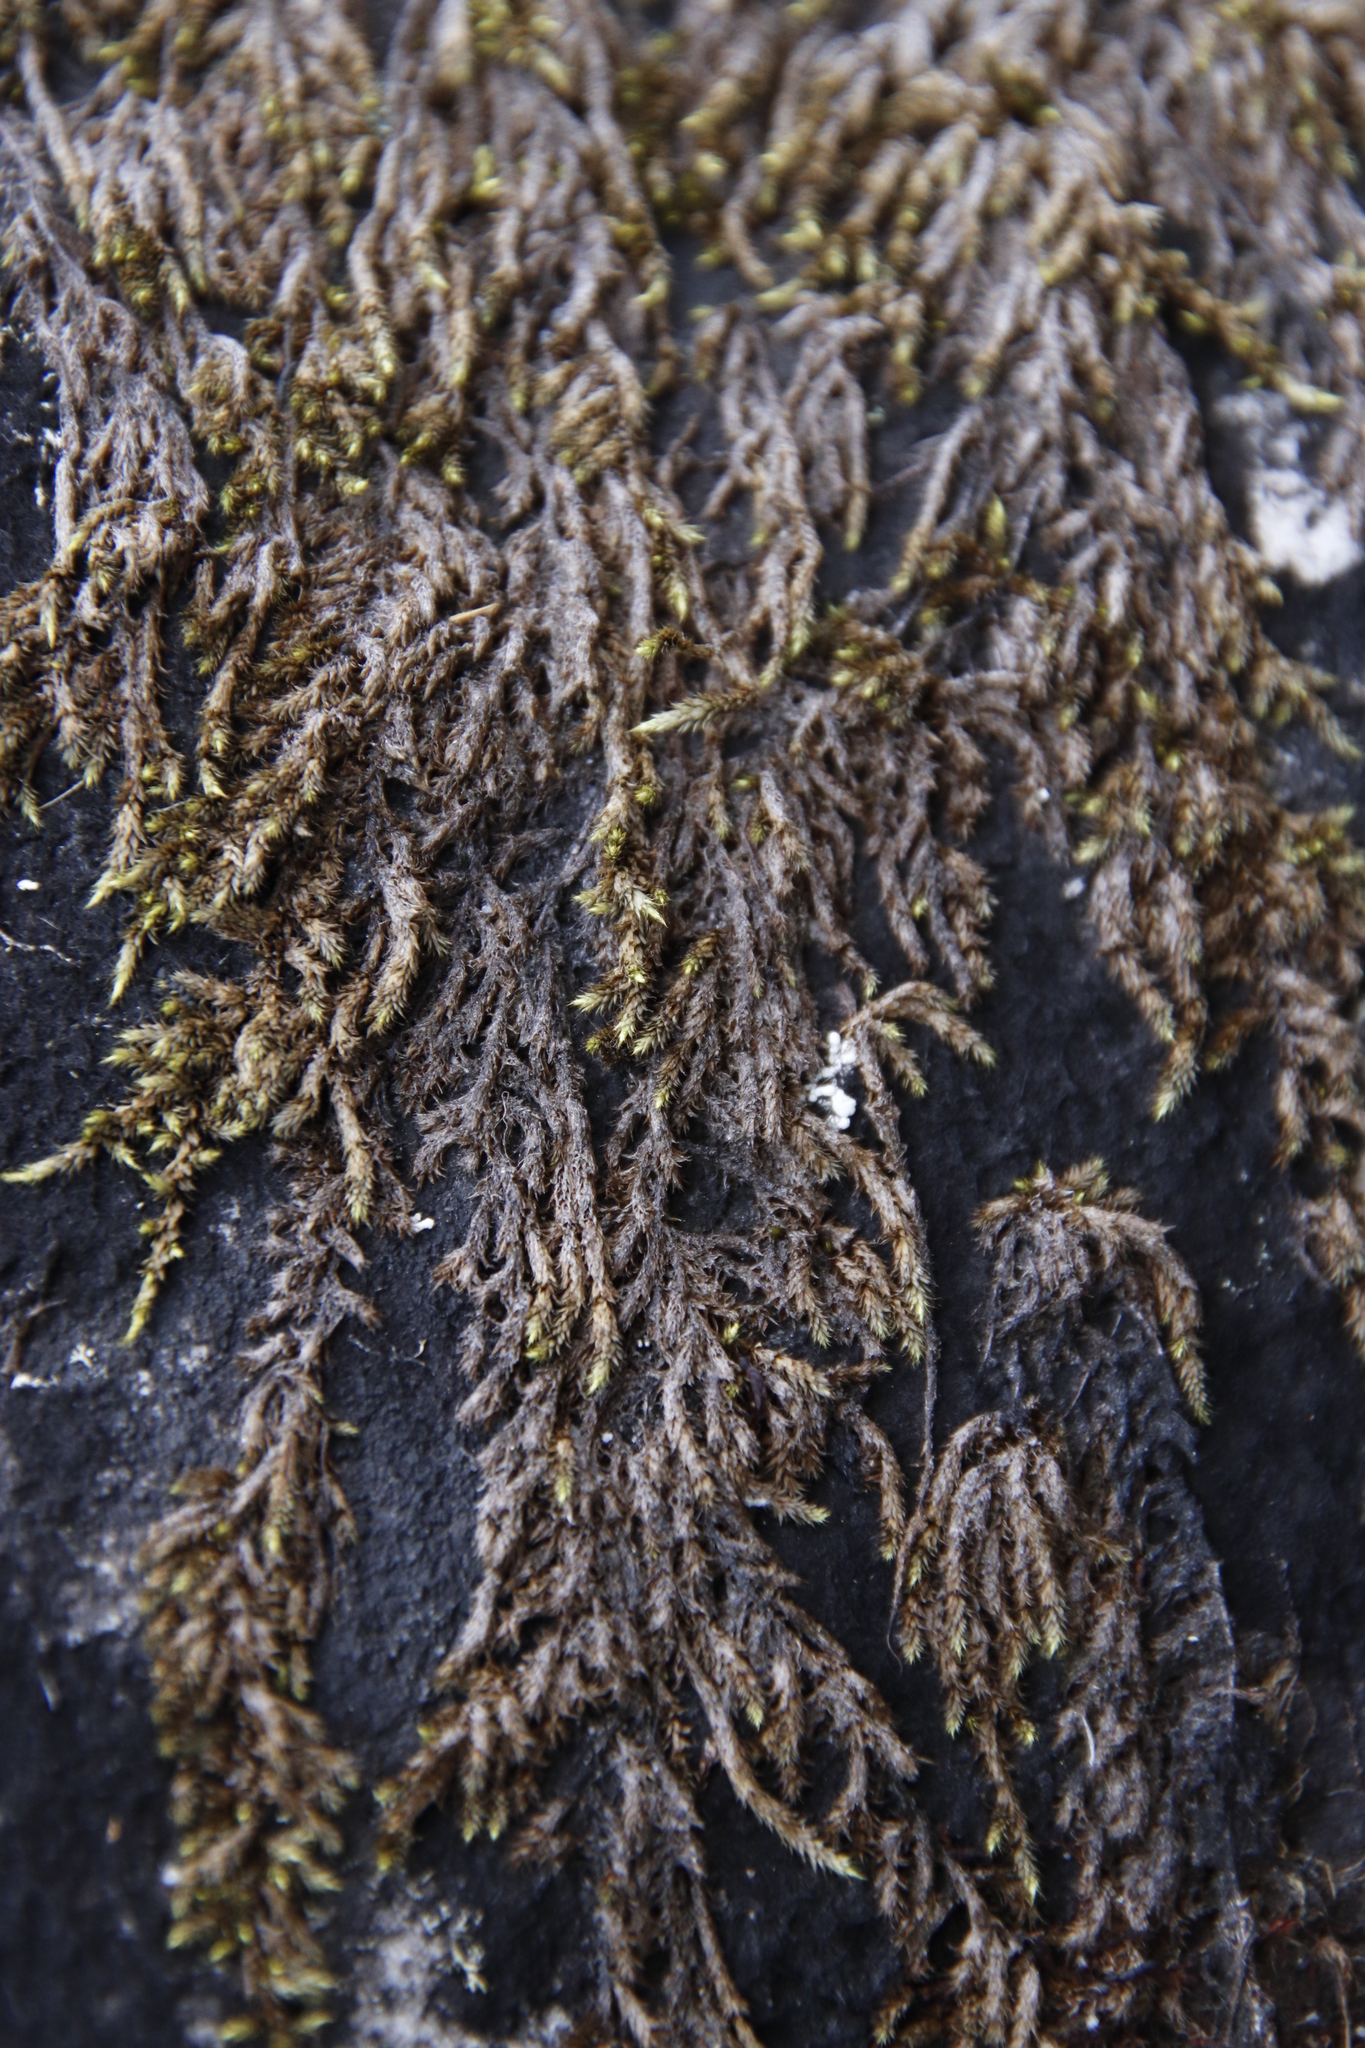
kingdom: Plantae
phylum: Bryophyta
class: Bryopsida
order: Hedwigiales
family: Hedwigiaceae
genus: Rhacocarpus
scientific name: Rhacocarpus purpurascens
